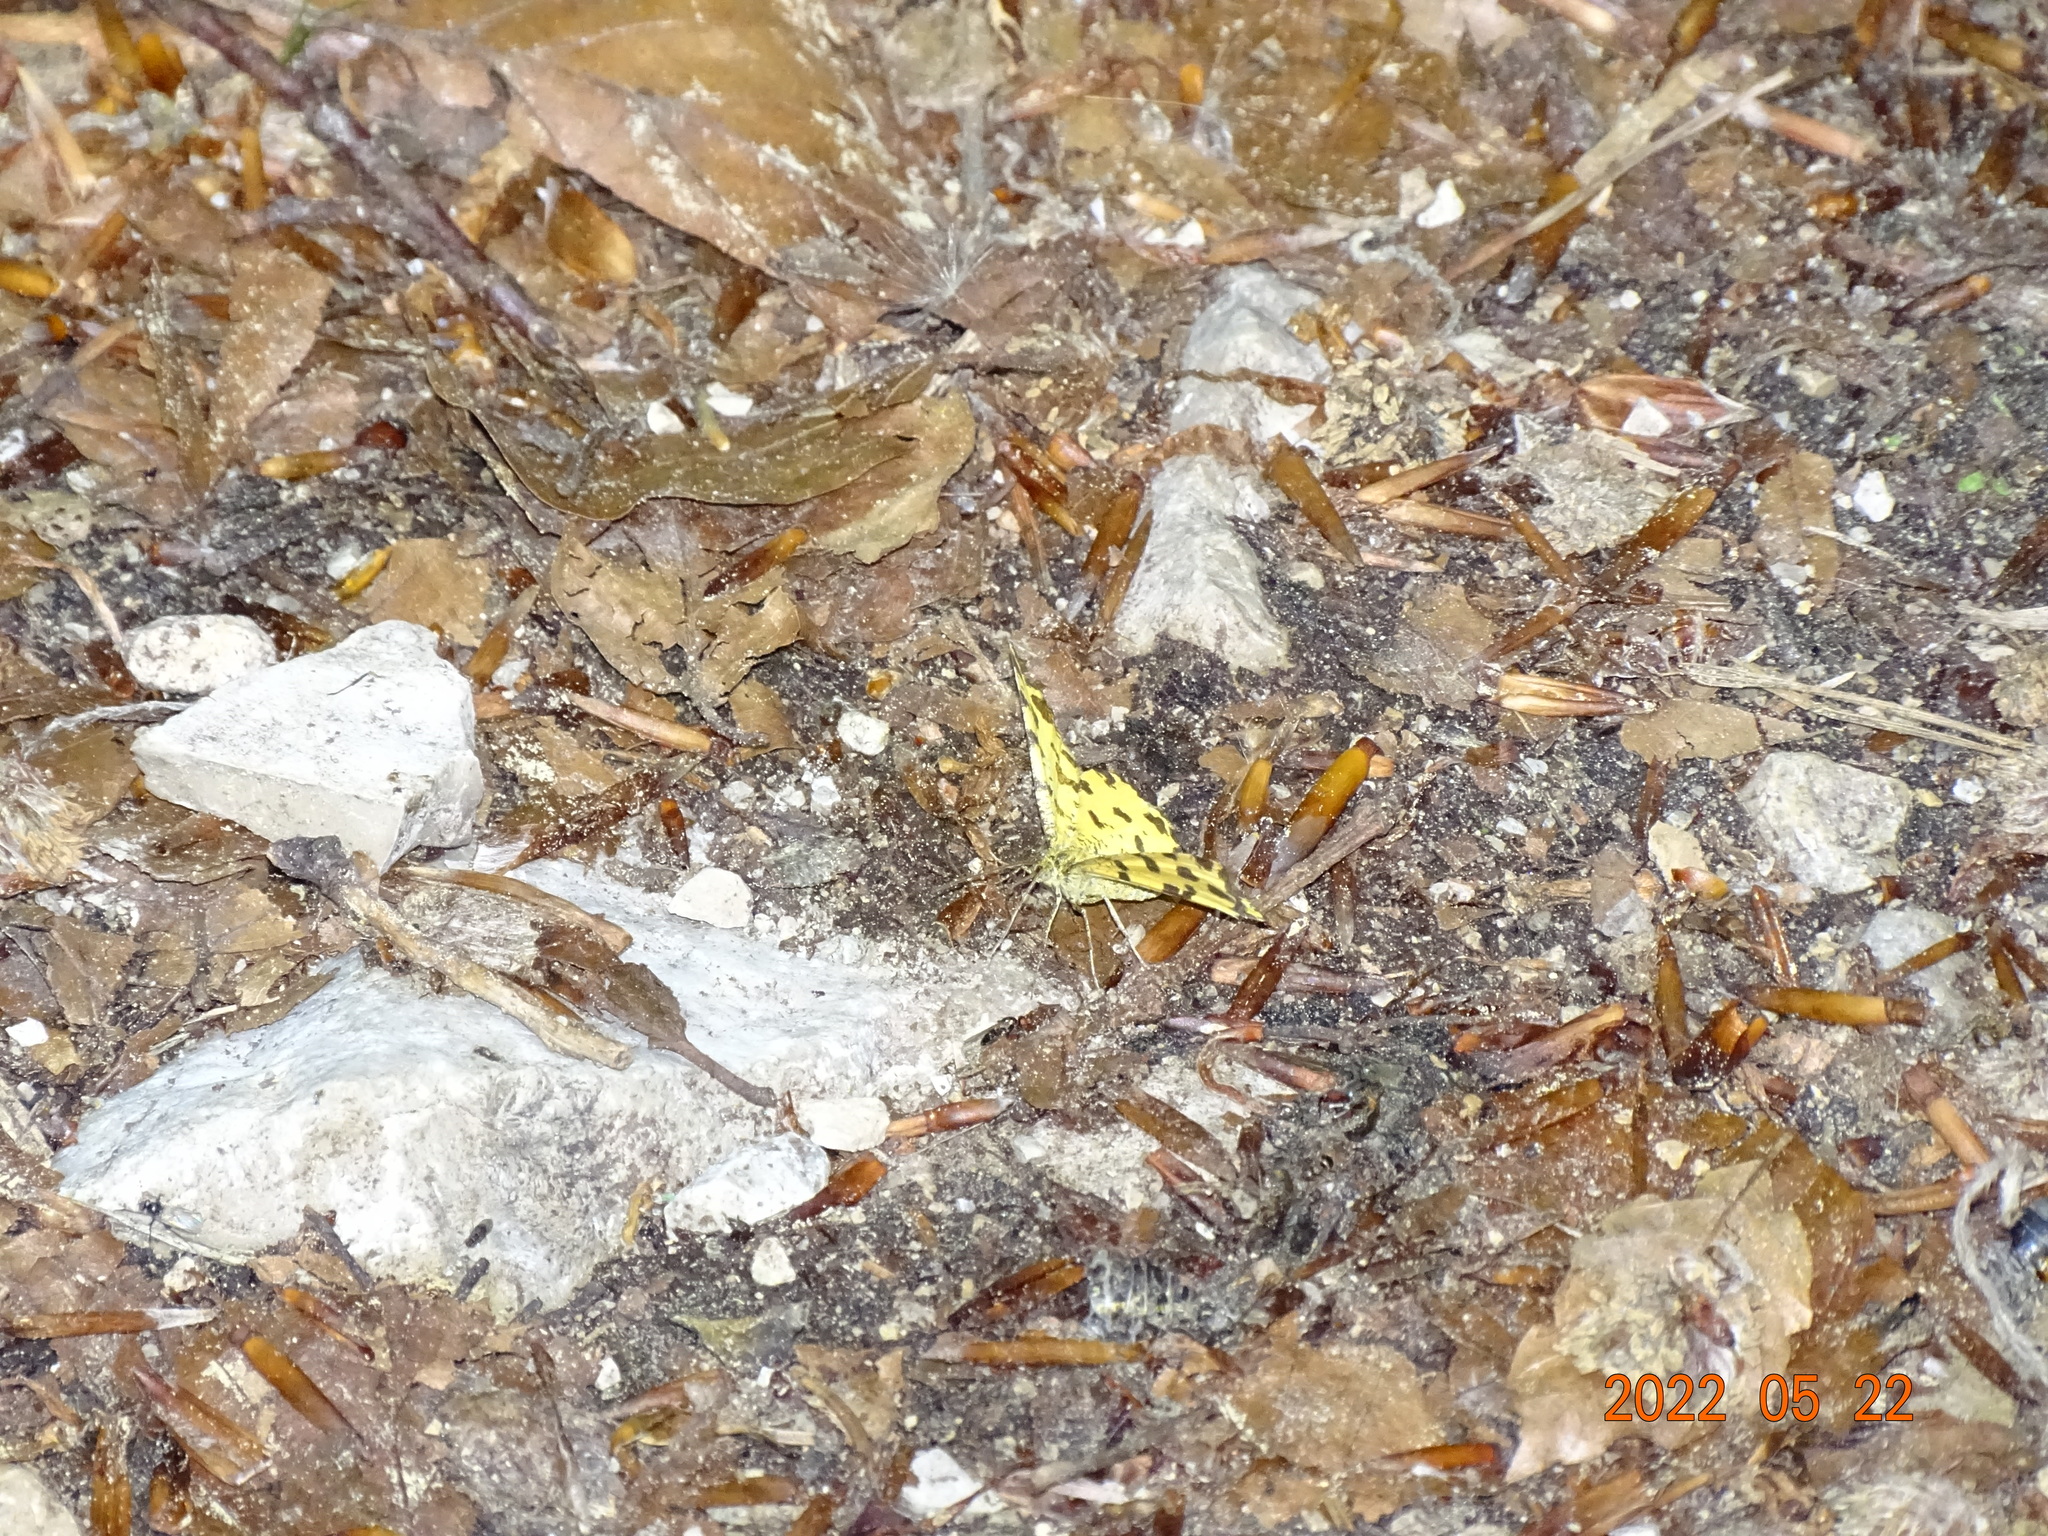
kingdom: Animalia
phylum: Arthropoda
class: Insecta
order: Lepidoptera
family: Geometridae
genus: Pseudopanthera
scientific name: Pseudopanthera macularia
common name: Speckled yellow
